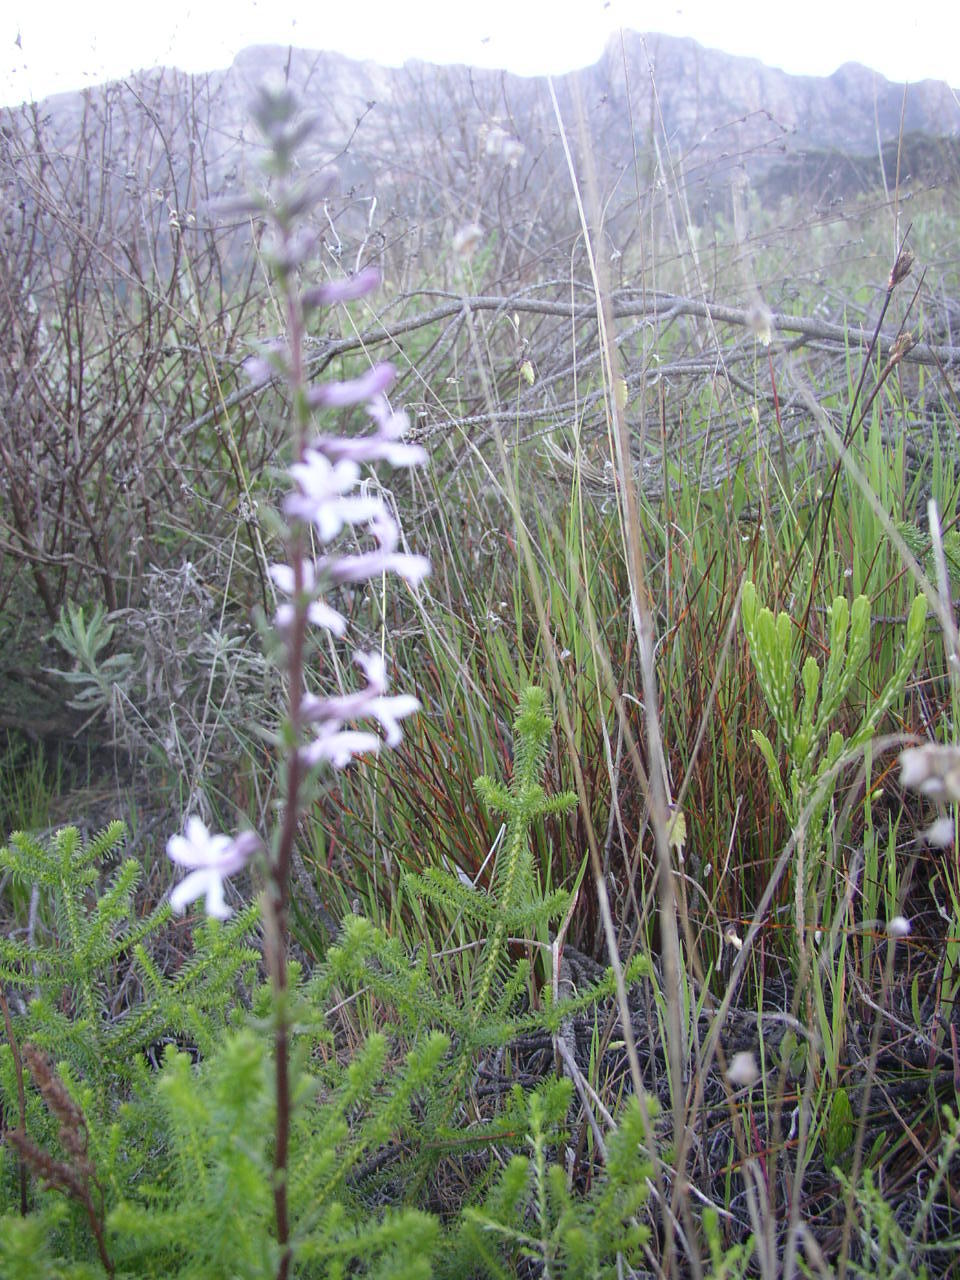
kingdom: Plantae
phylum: Tracheophyta
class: Magnoliopsida
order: Asterales
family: Campanulaceae
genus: Cyphia
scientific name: Cyphia bulbosa
